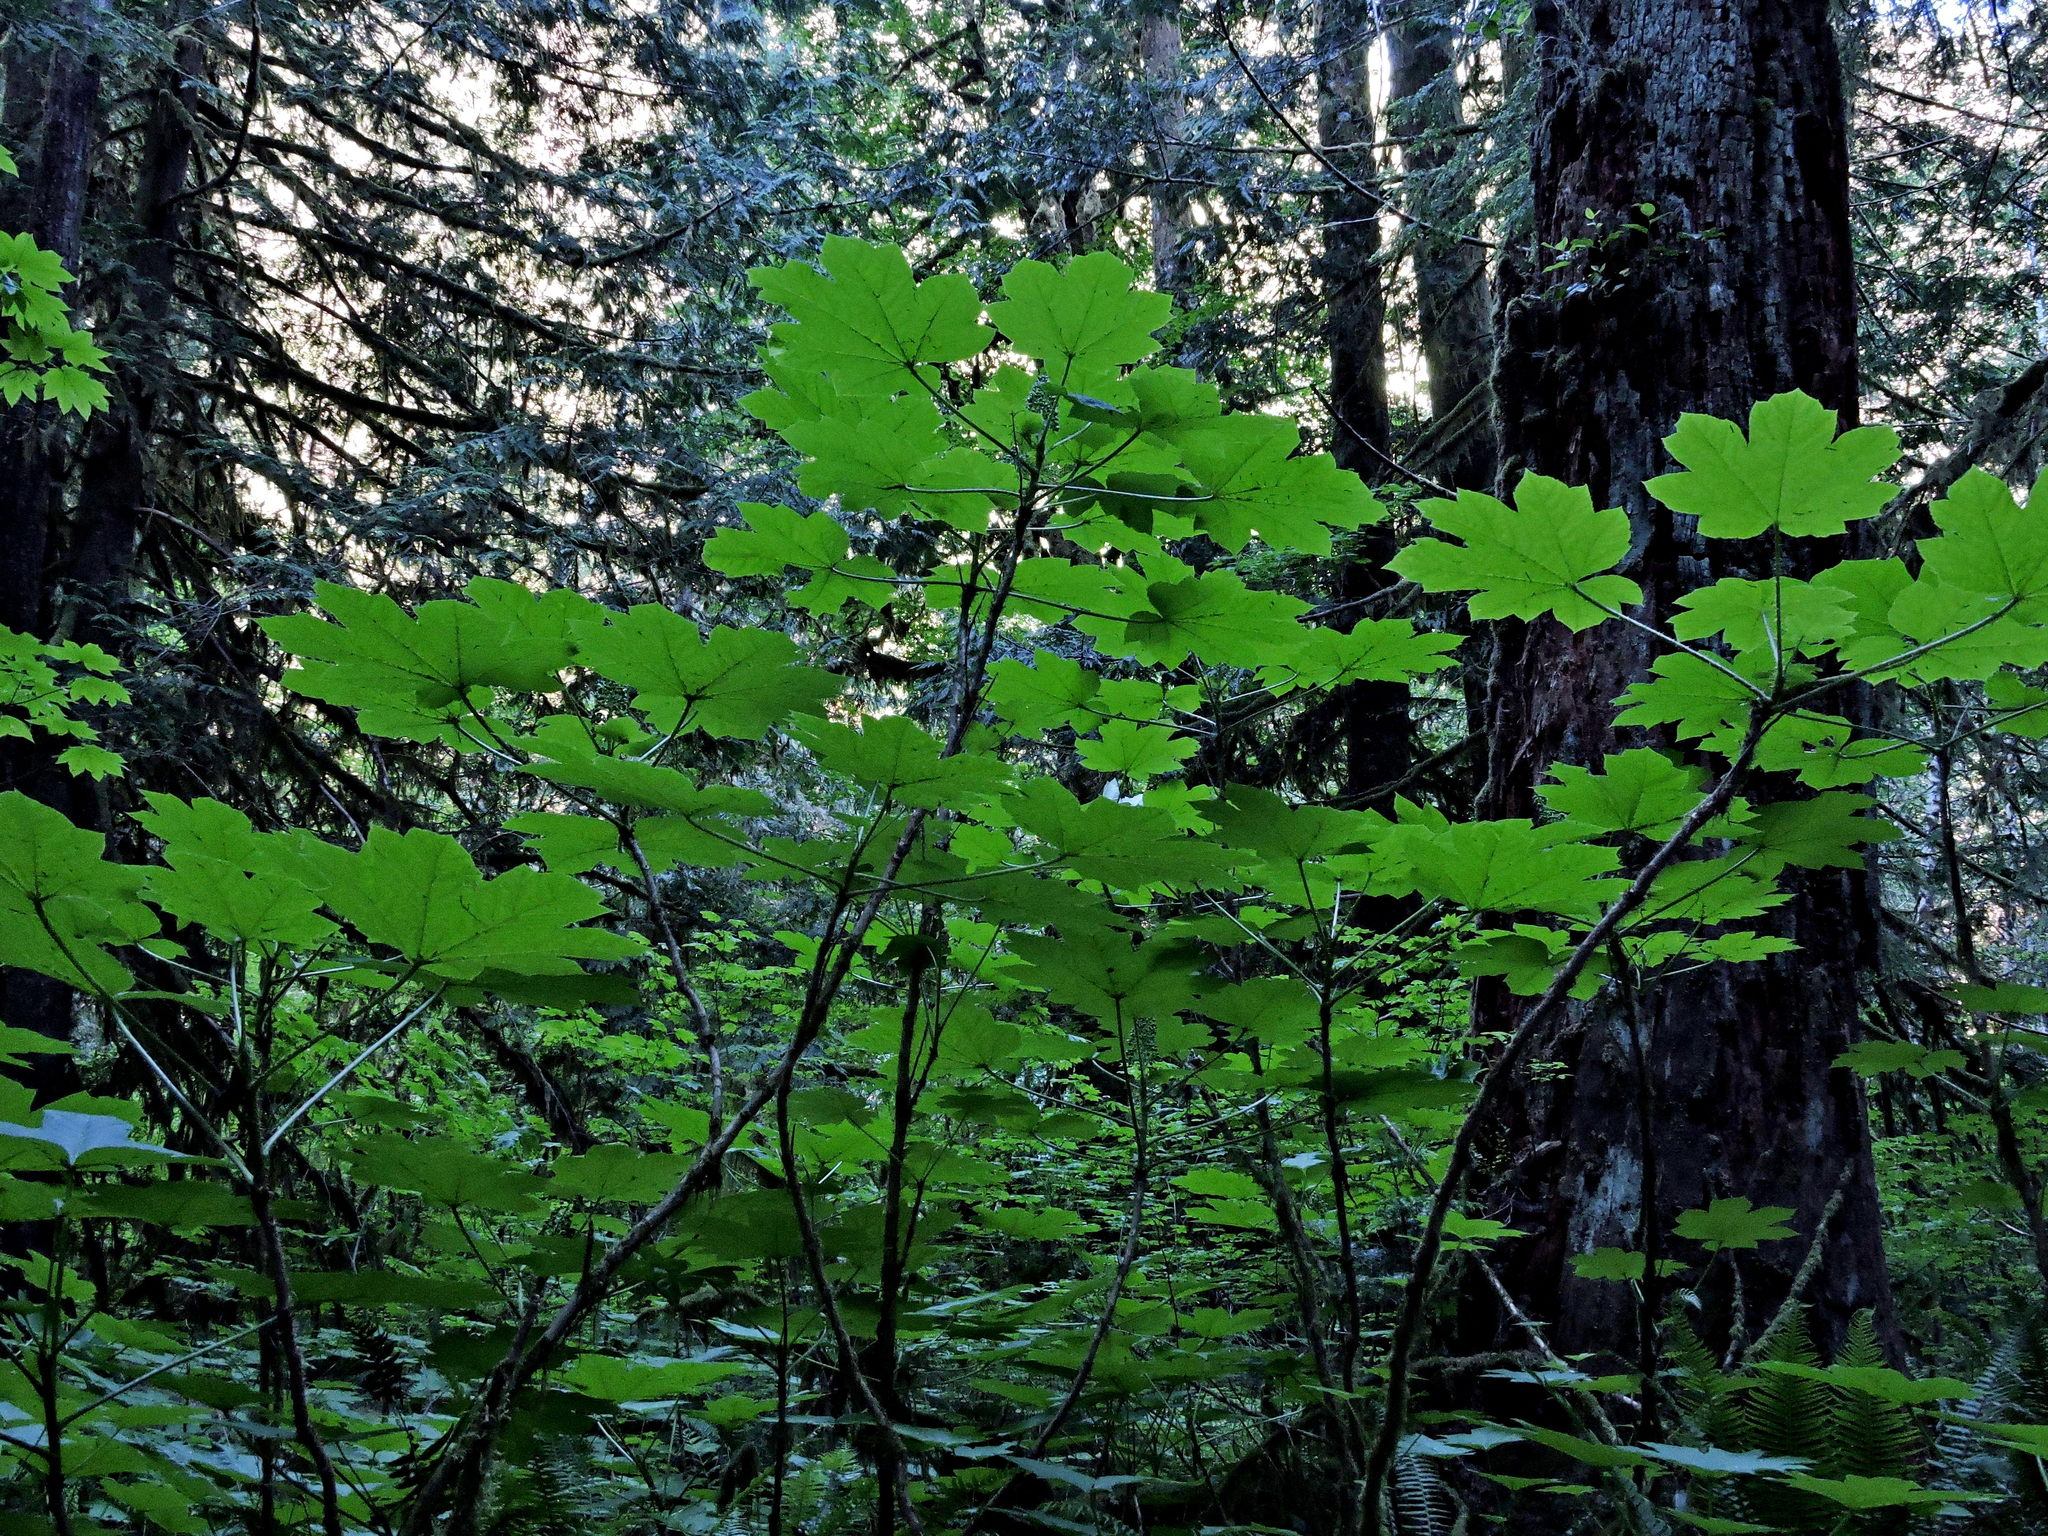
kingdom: Plantae
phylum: Tracheophyta
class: Magnoliopsida
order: Apiales
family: Araliaceae
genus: Oplopanax
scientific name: Oplopanax horridus
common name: Devil's walking-stick
